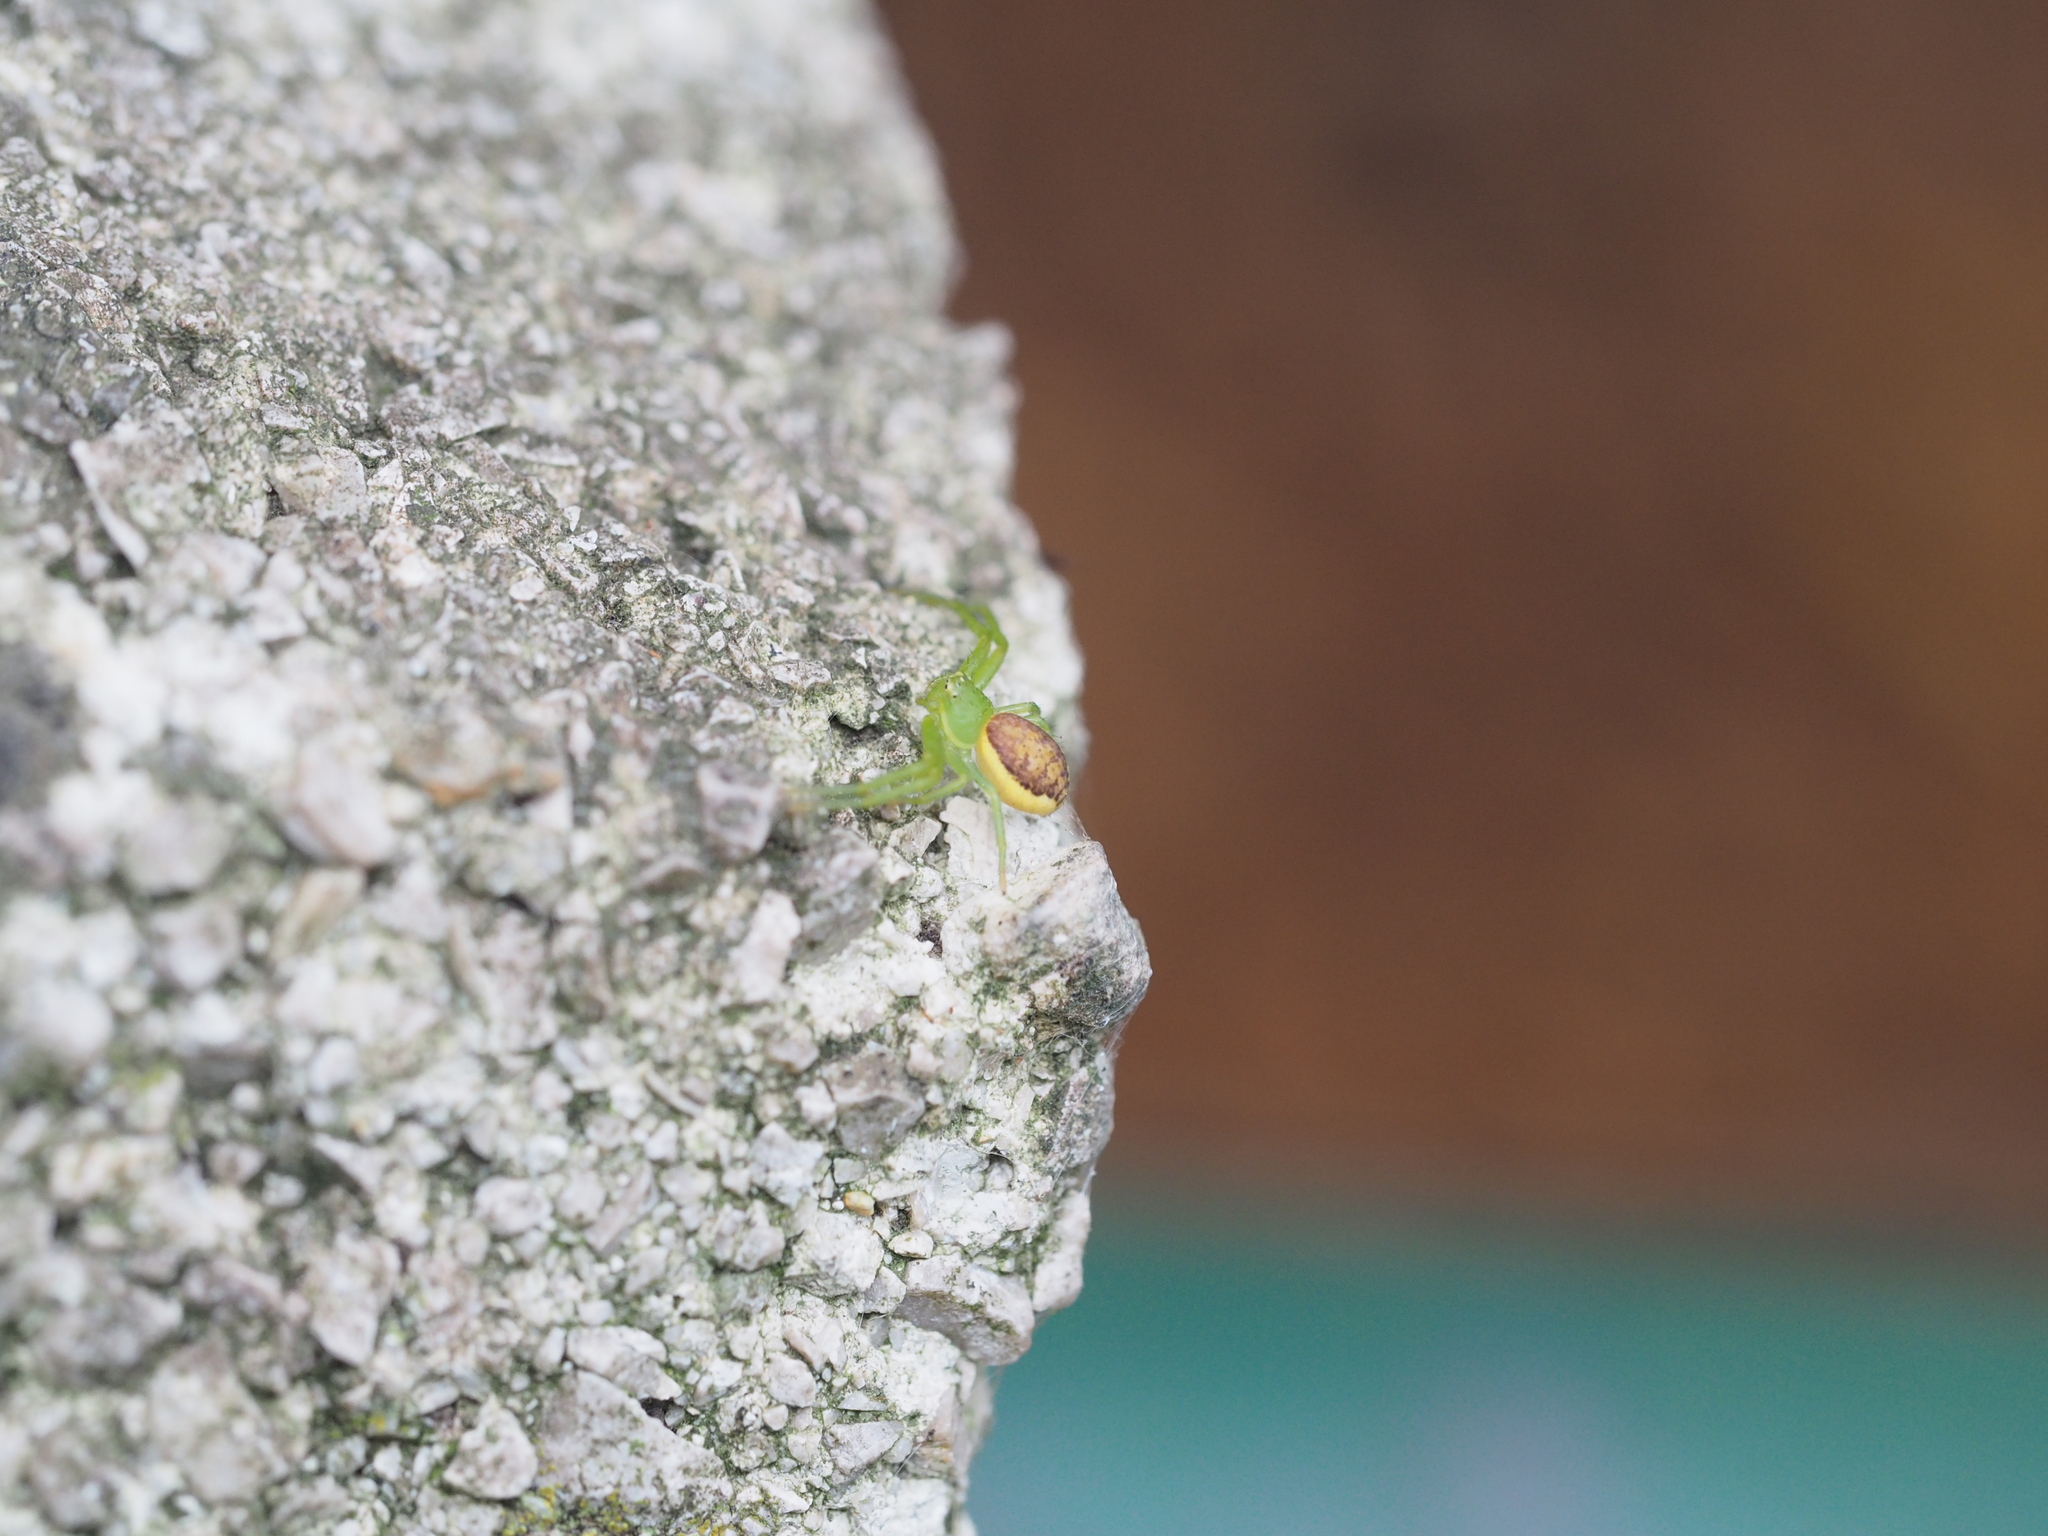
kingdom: Animalia
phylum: Arthropoda
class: Arachnida
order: Araneae
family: Thomisidae
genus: Diaea
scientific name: Diaea dorsata
